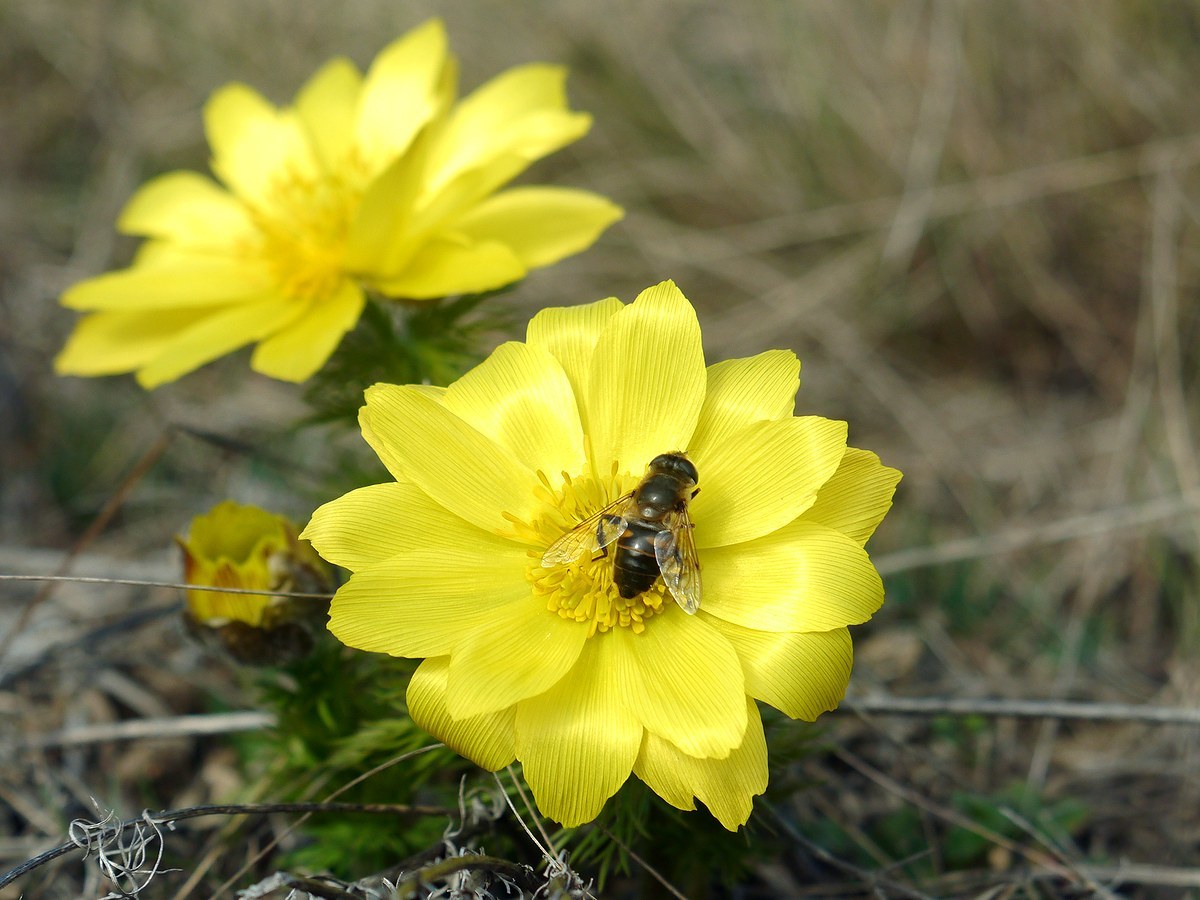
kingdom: Animalia
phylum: Arthropoda
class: Insecta
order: Diptera
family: Syrphidae
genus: Eristalis
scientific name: Eristalis tenax
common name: Drone fly
